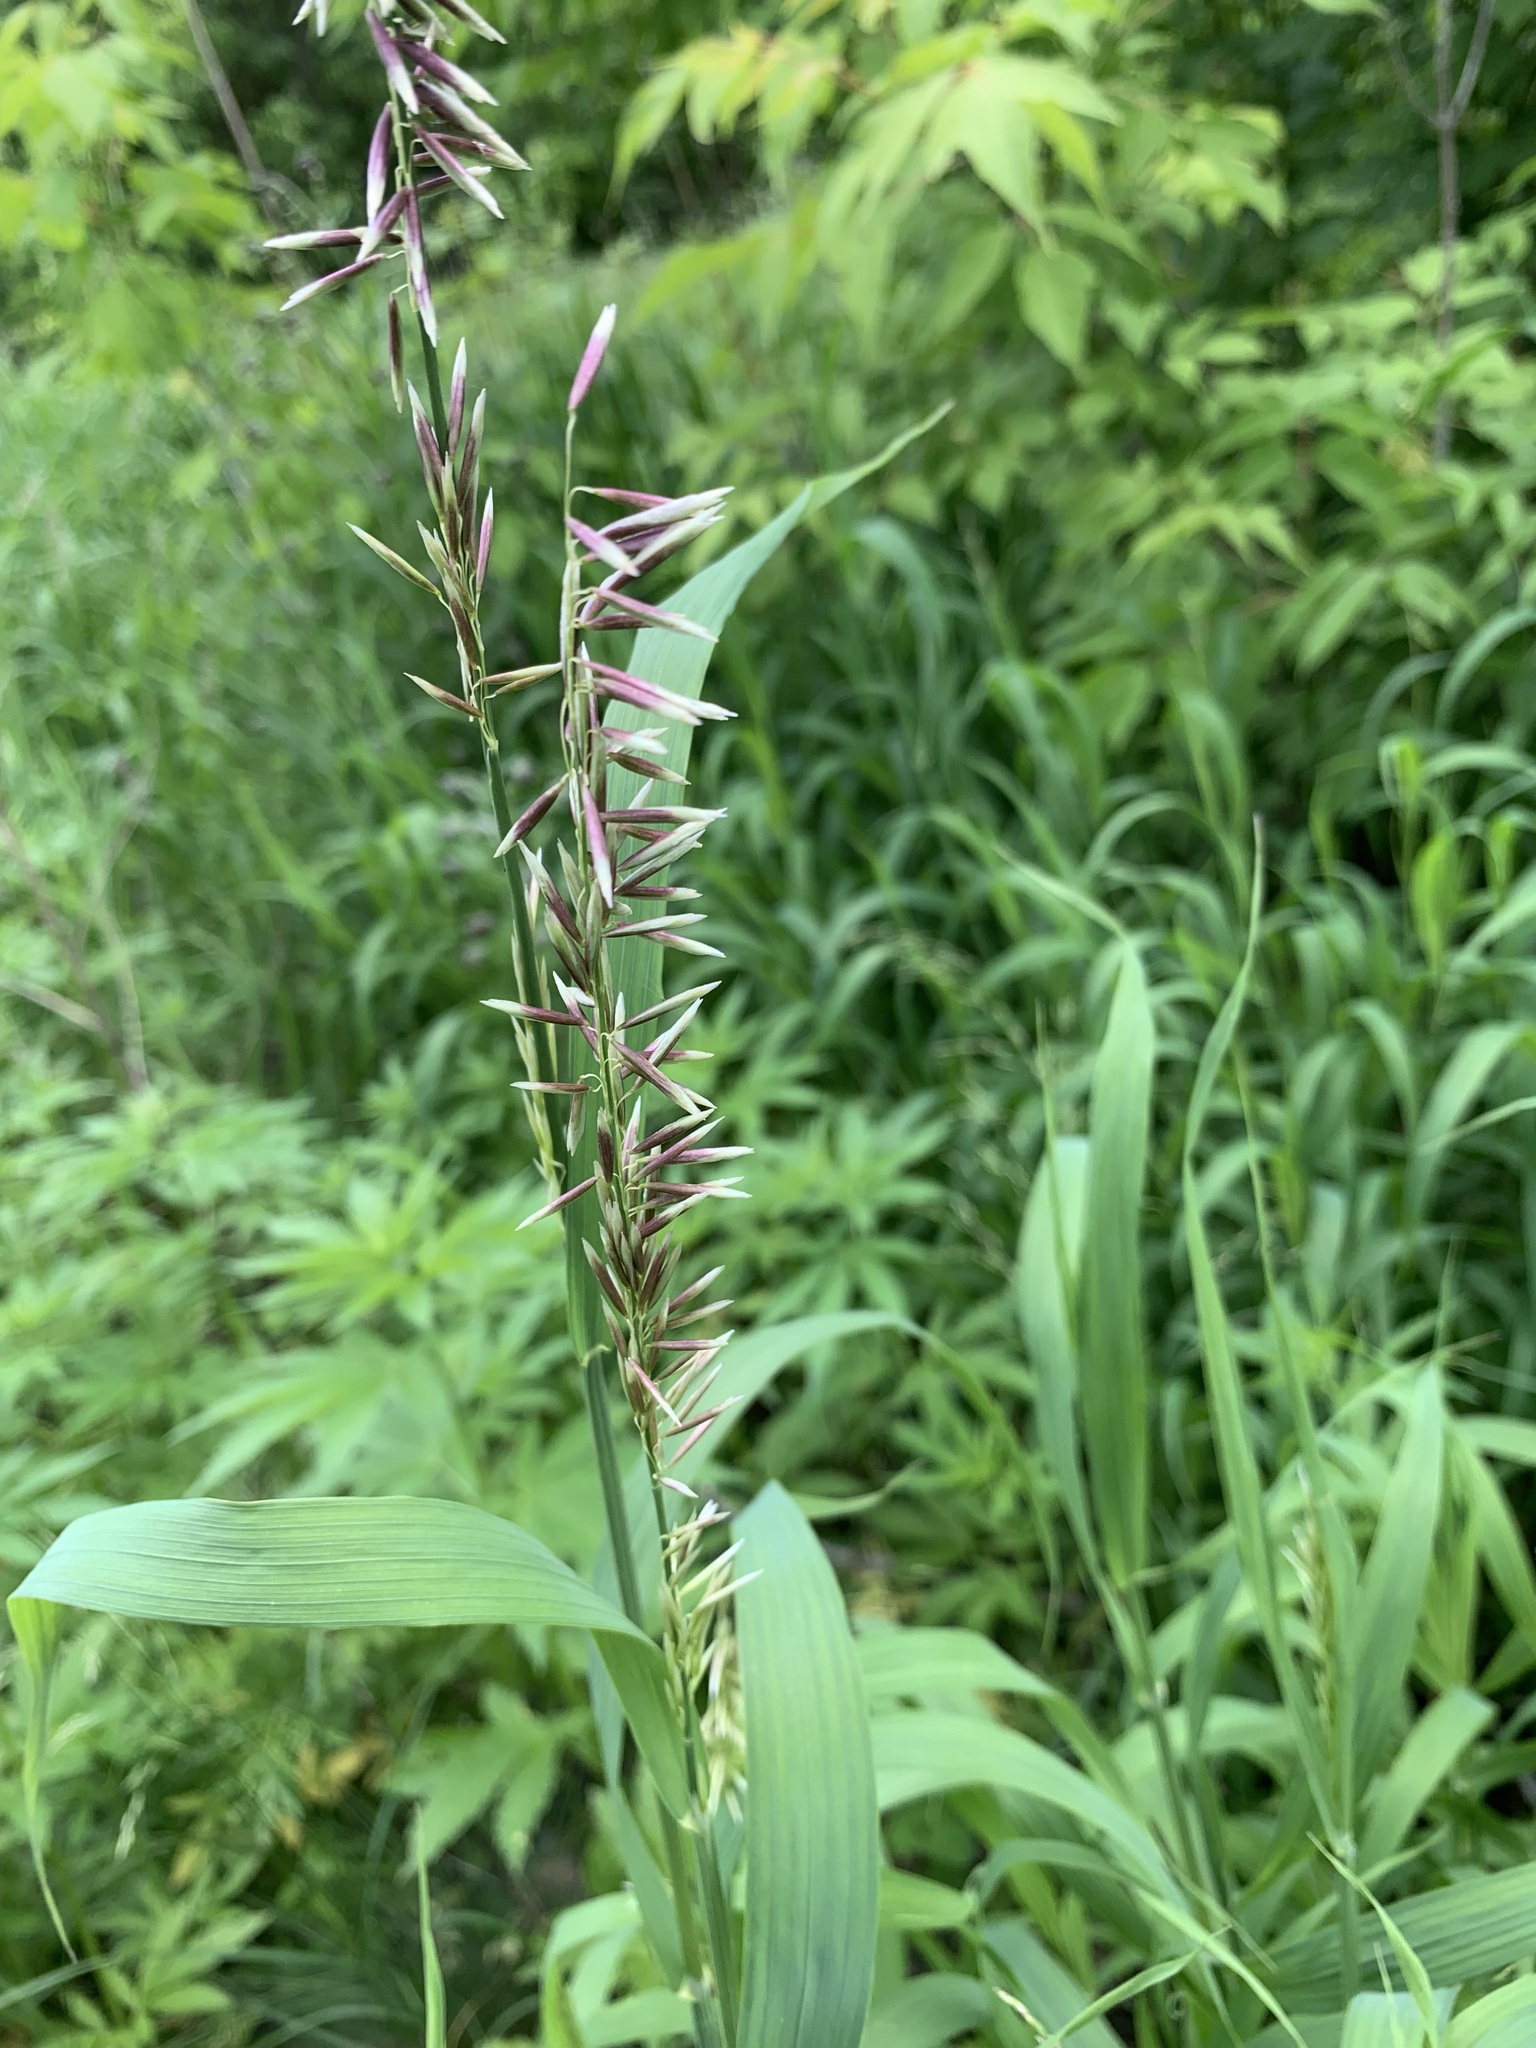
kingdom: Plantae
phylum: Tracheophyta
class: Liliopsida
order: Poales
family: Poaceae
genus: Melica
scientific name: Melica altissima
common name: Siberian melicgrass
